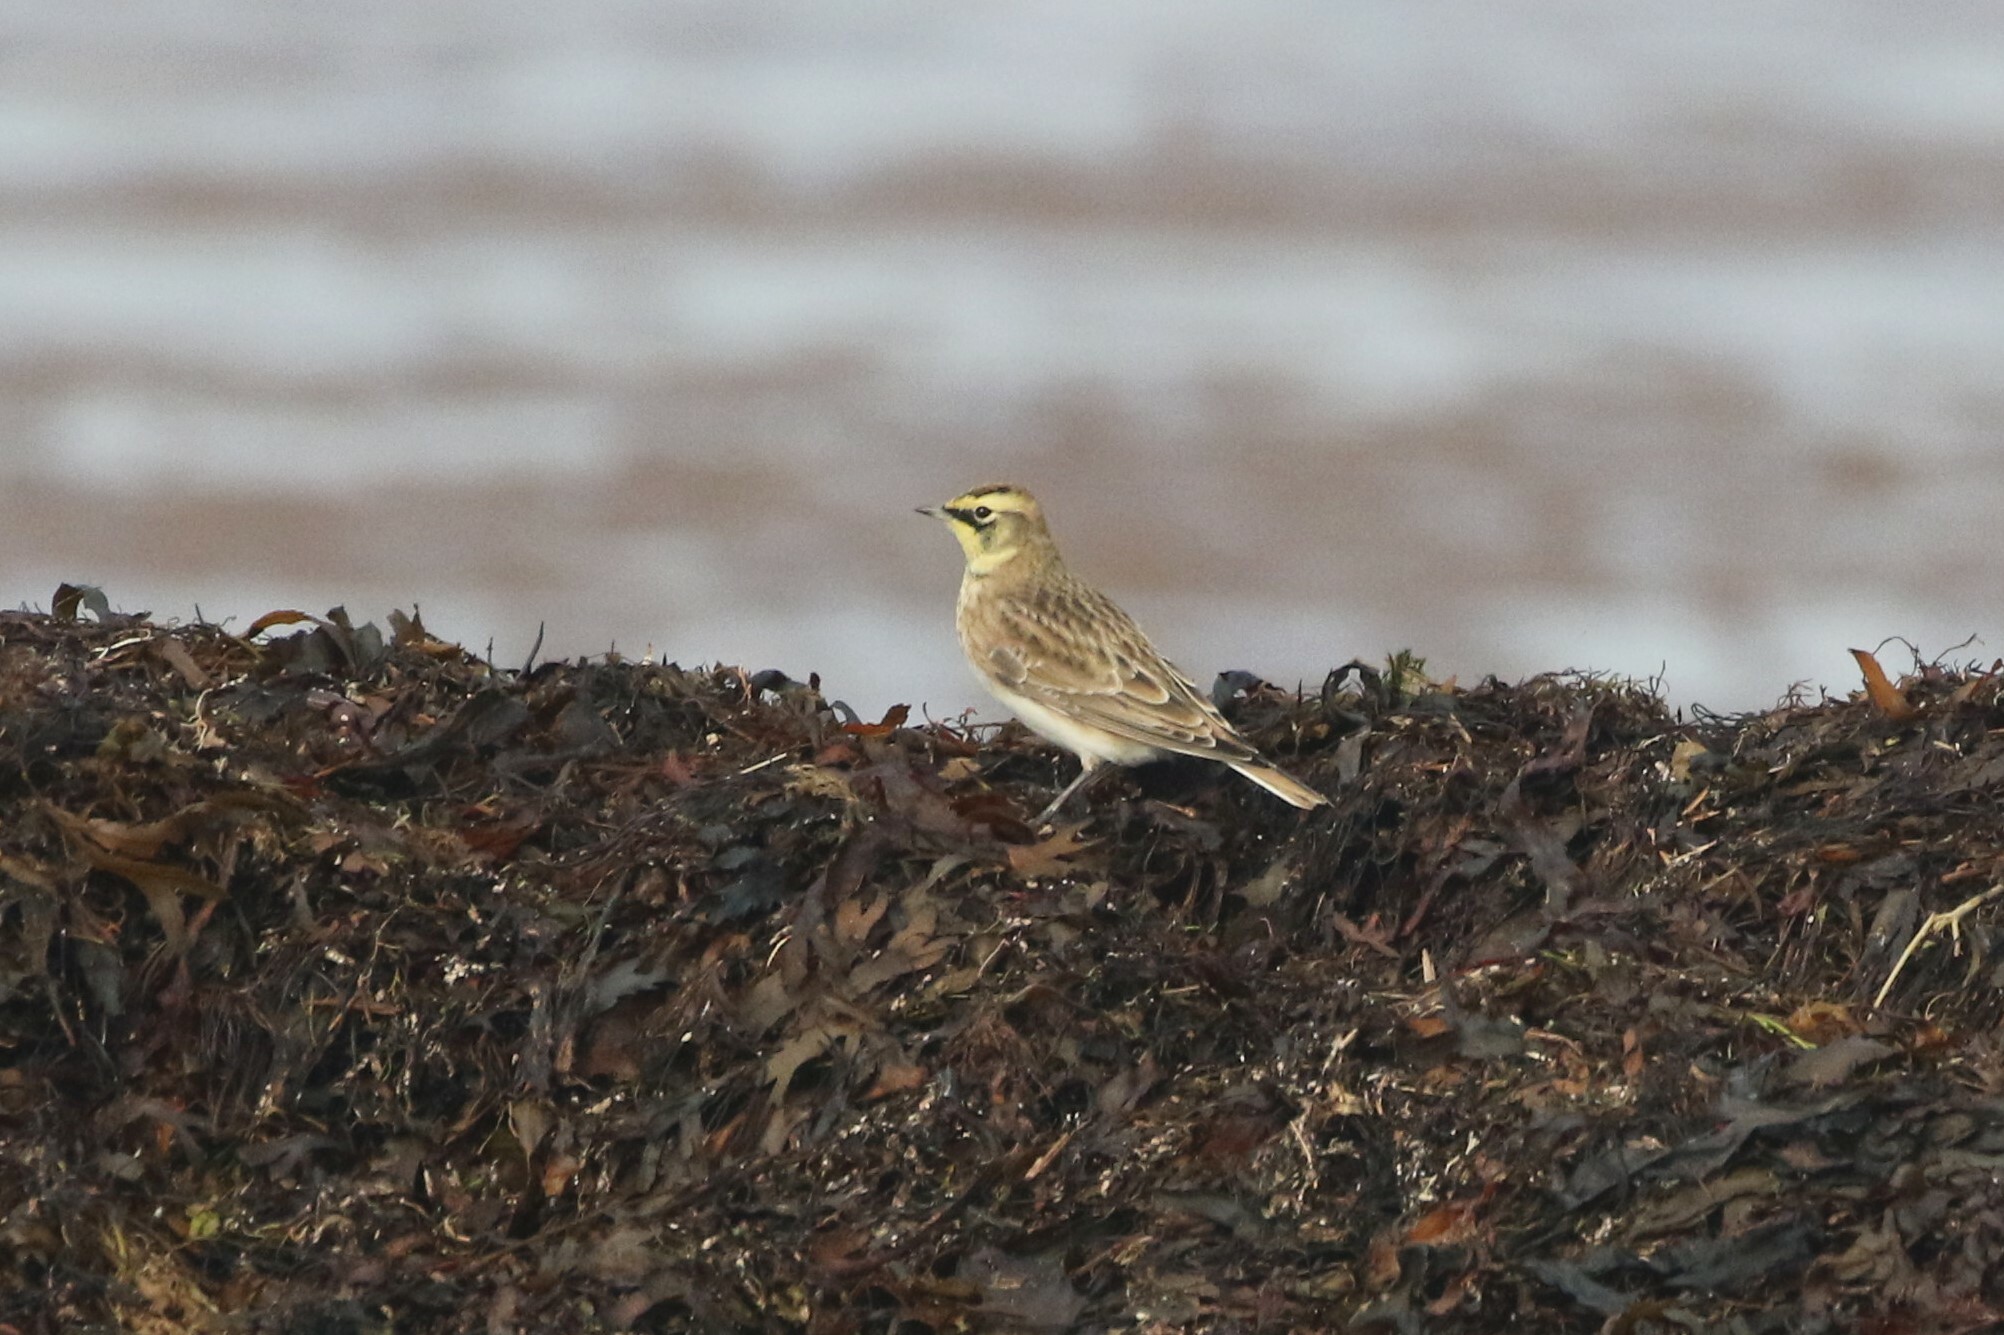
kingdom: Animalia
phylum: Chordata
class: Aves
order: Passeriformes
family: Alaudidae
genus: Eremophila
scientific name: Eremophila alpestris
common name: Horned lark
